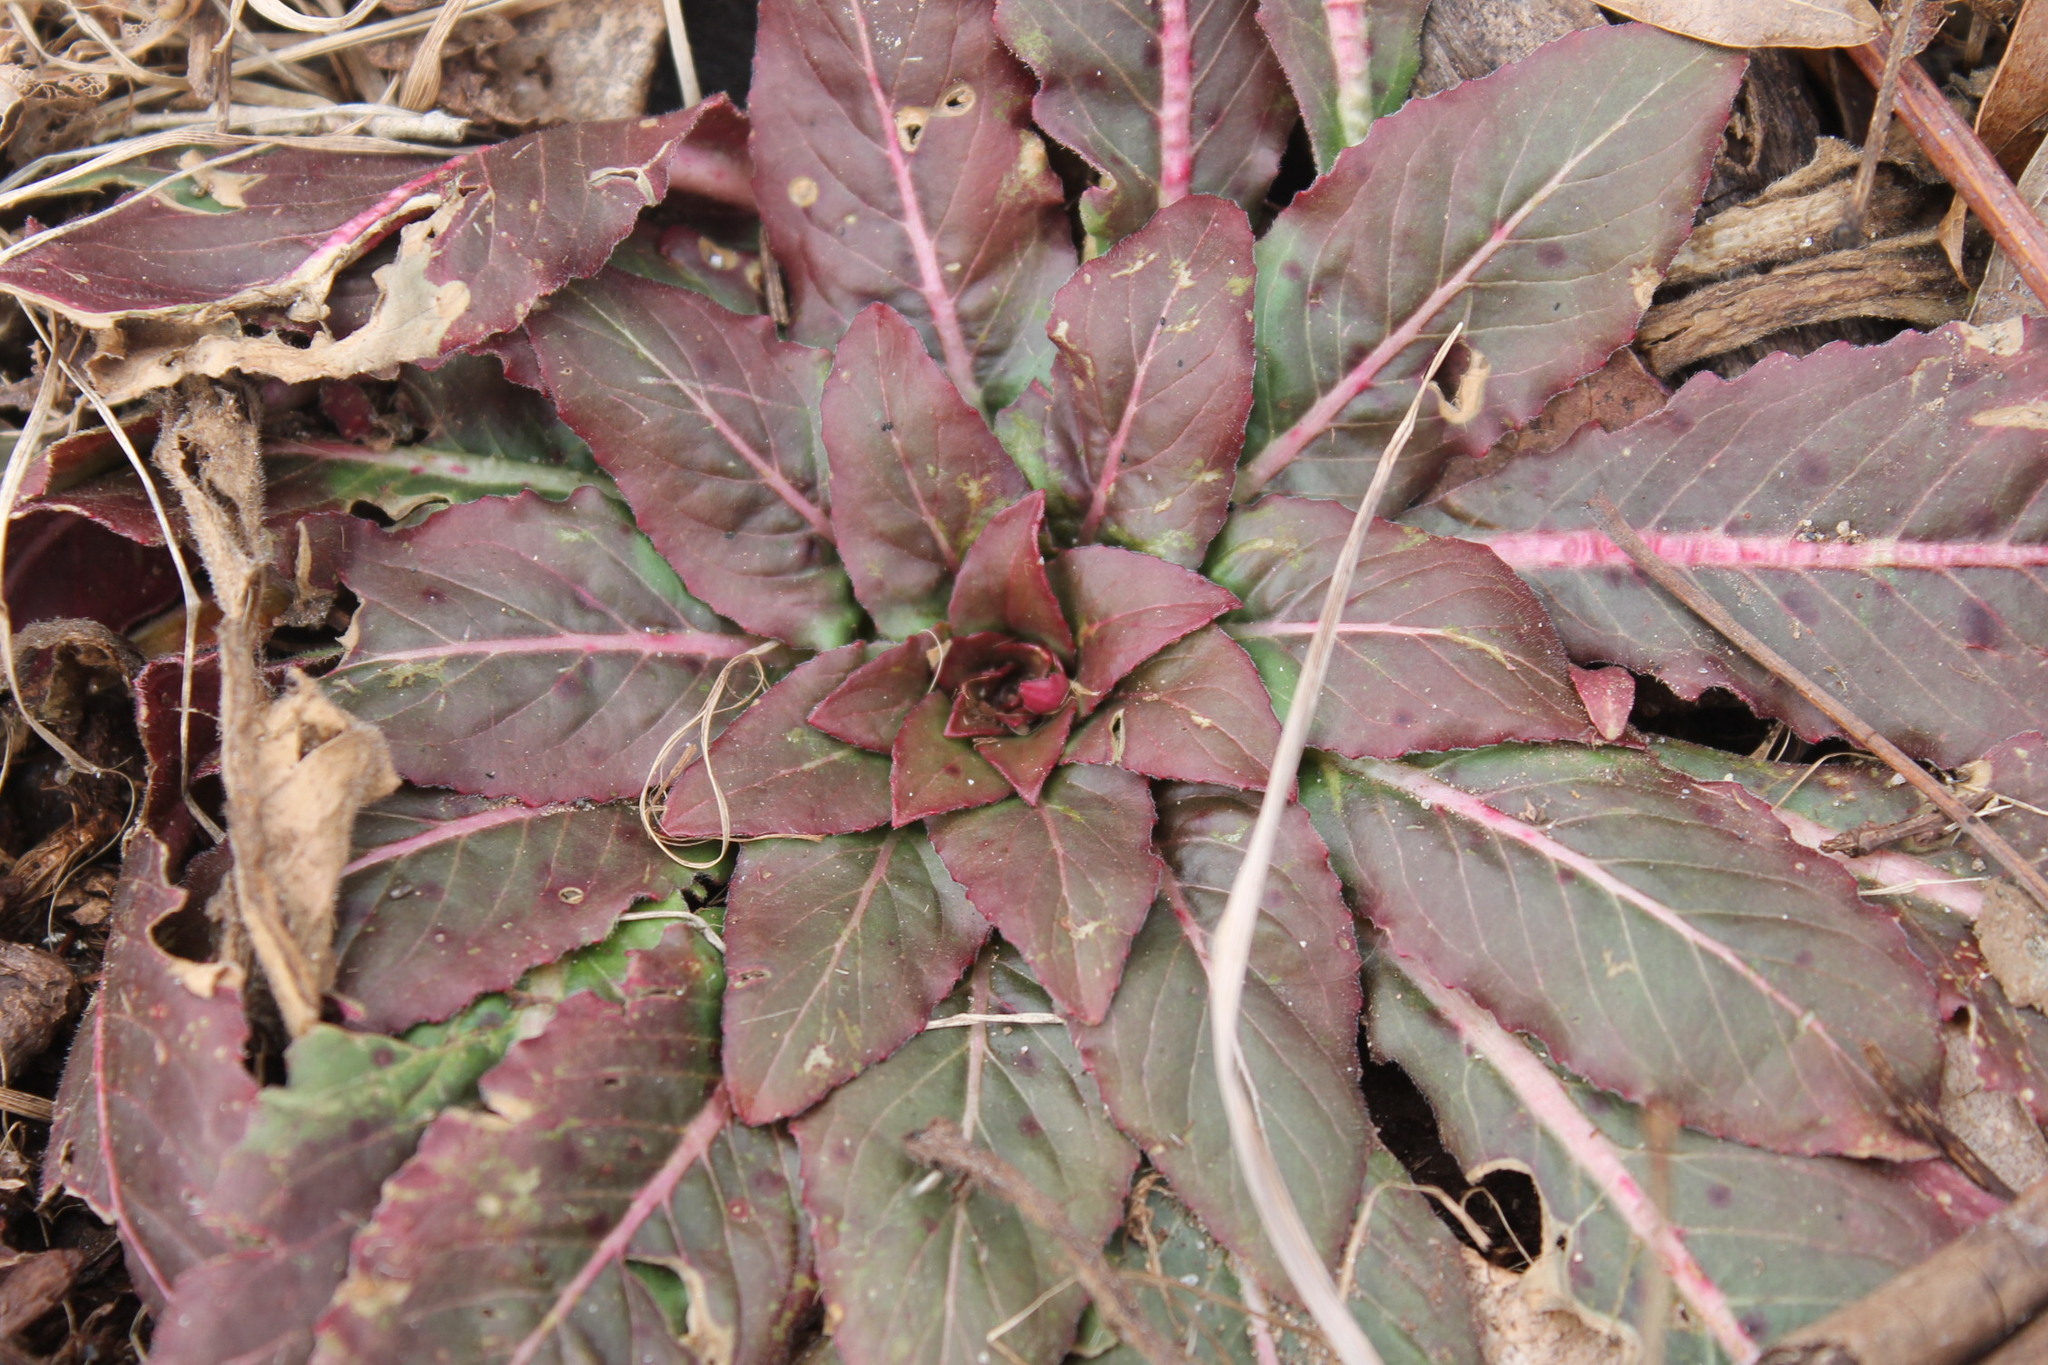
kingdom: Plantae
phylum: Tracheophyta
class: Magnoliopsida
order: Myrtales
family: Onagraceae
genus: Oenothera
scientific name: Oenothera biennis
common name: Common evening-primrose
